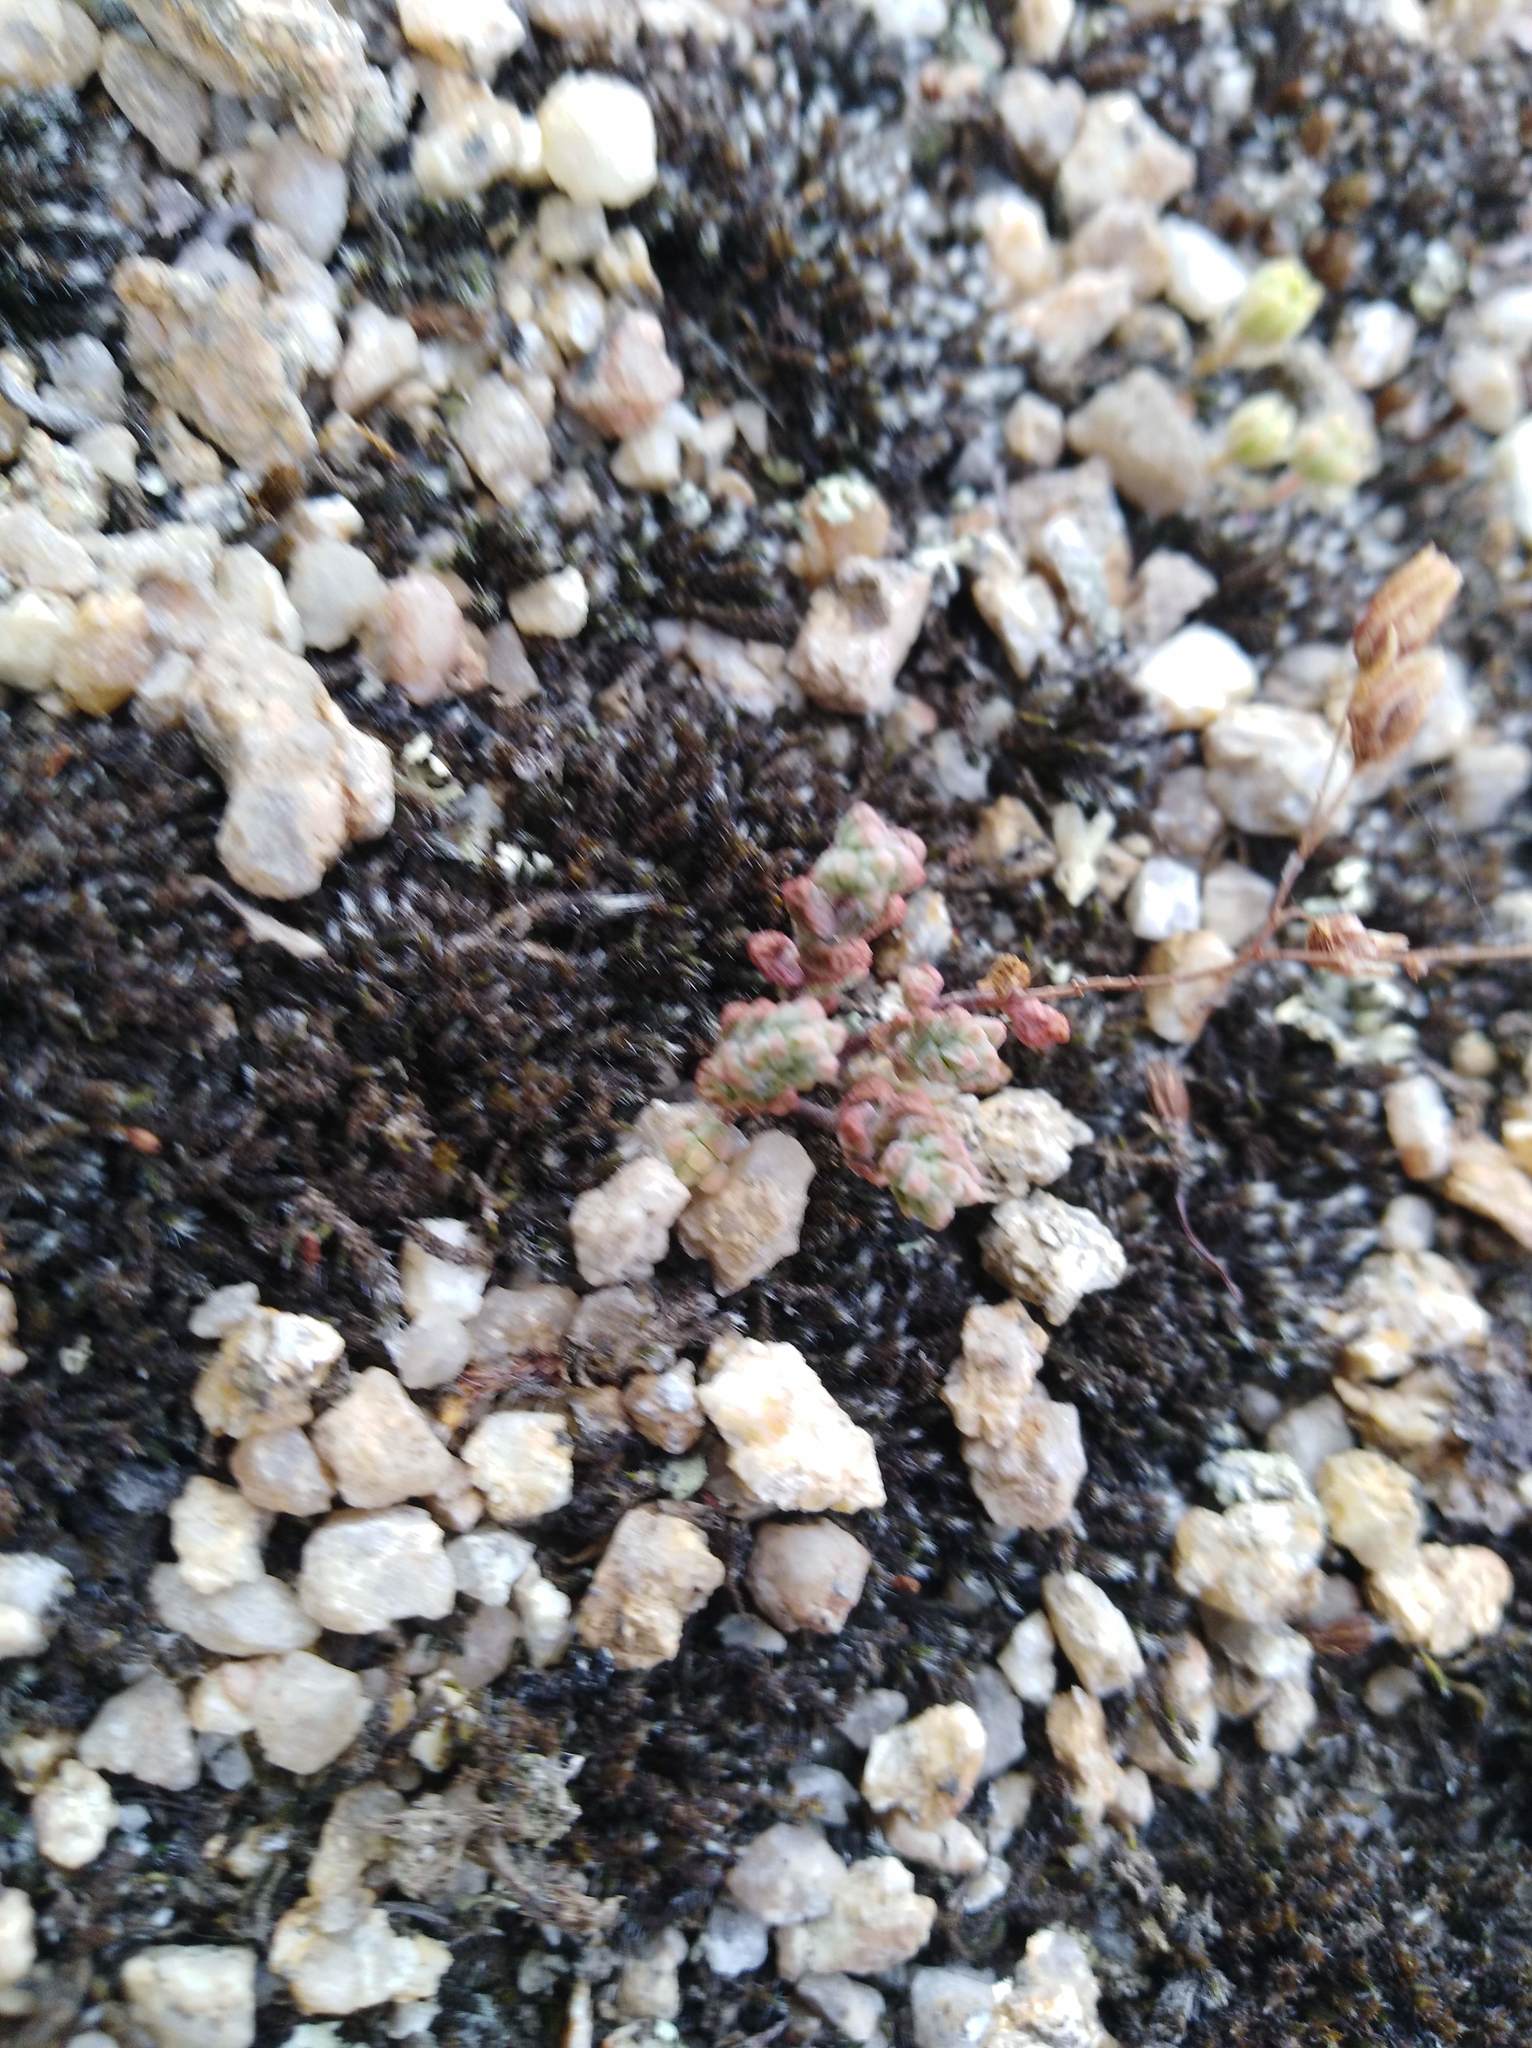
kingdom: Plantae
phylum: Tracheophyta
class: Magnoliopsida
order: Saxifragales
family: Crassulaceae
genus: Sedum
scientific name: Sedum brevifolium
